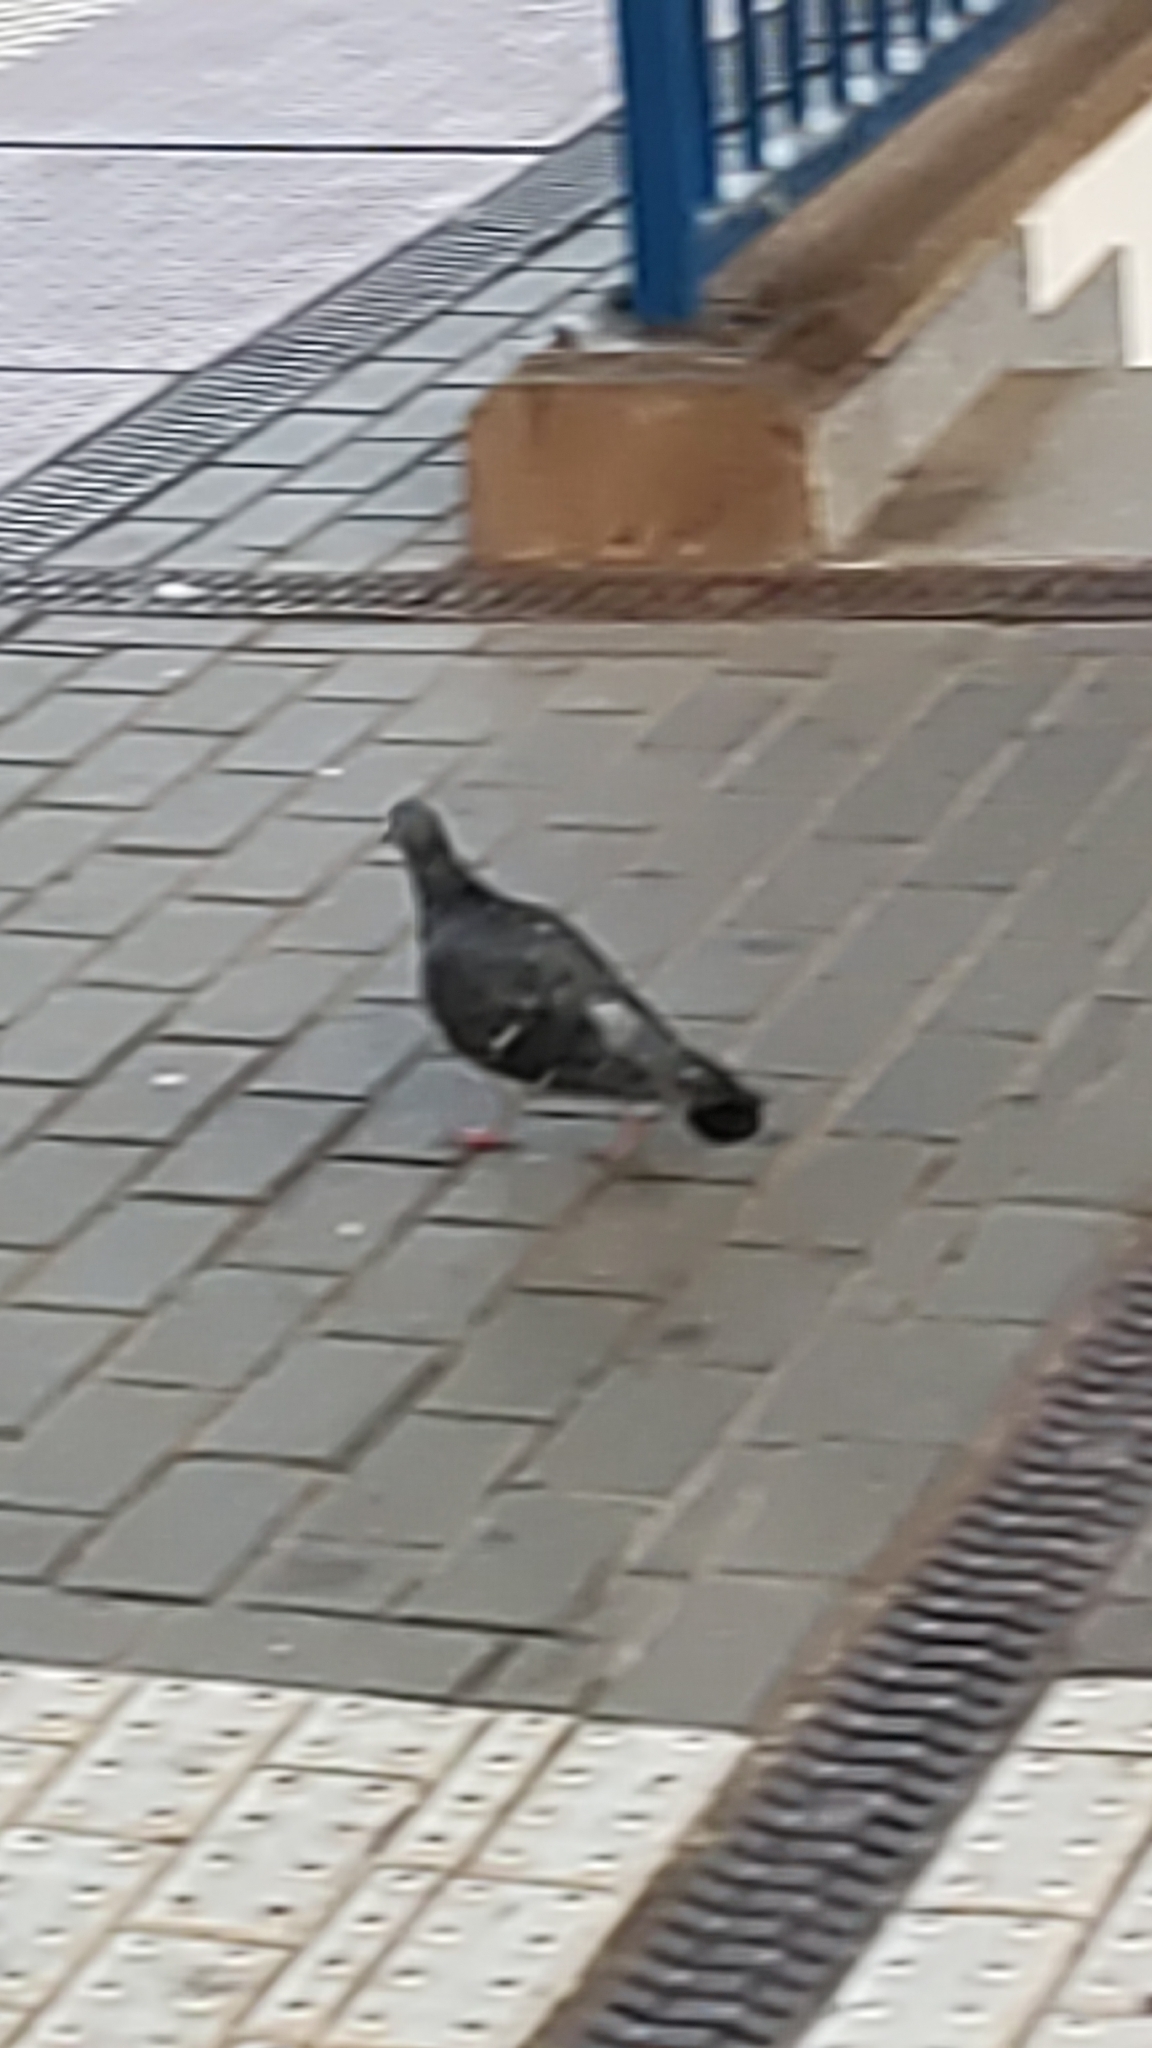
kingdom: Animalia
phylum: Chordata
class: Aves
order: Columbiformes
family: Columbidae
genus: Columba
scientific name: Columba livia
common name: Rock pigeon
